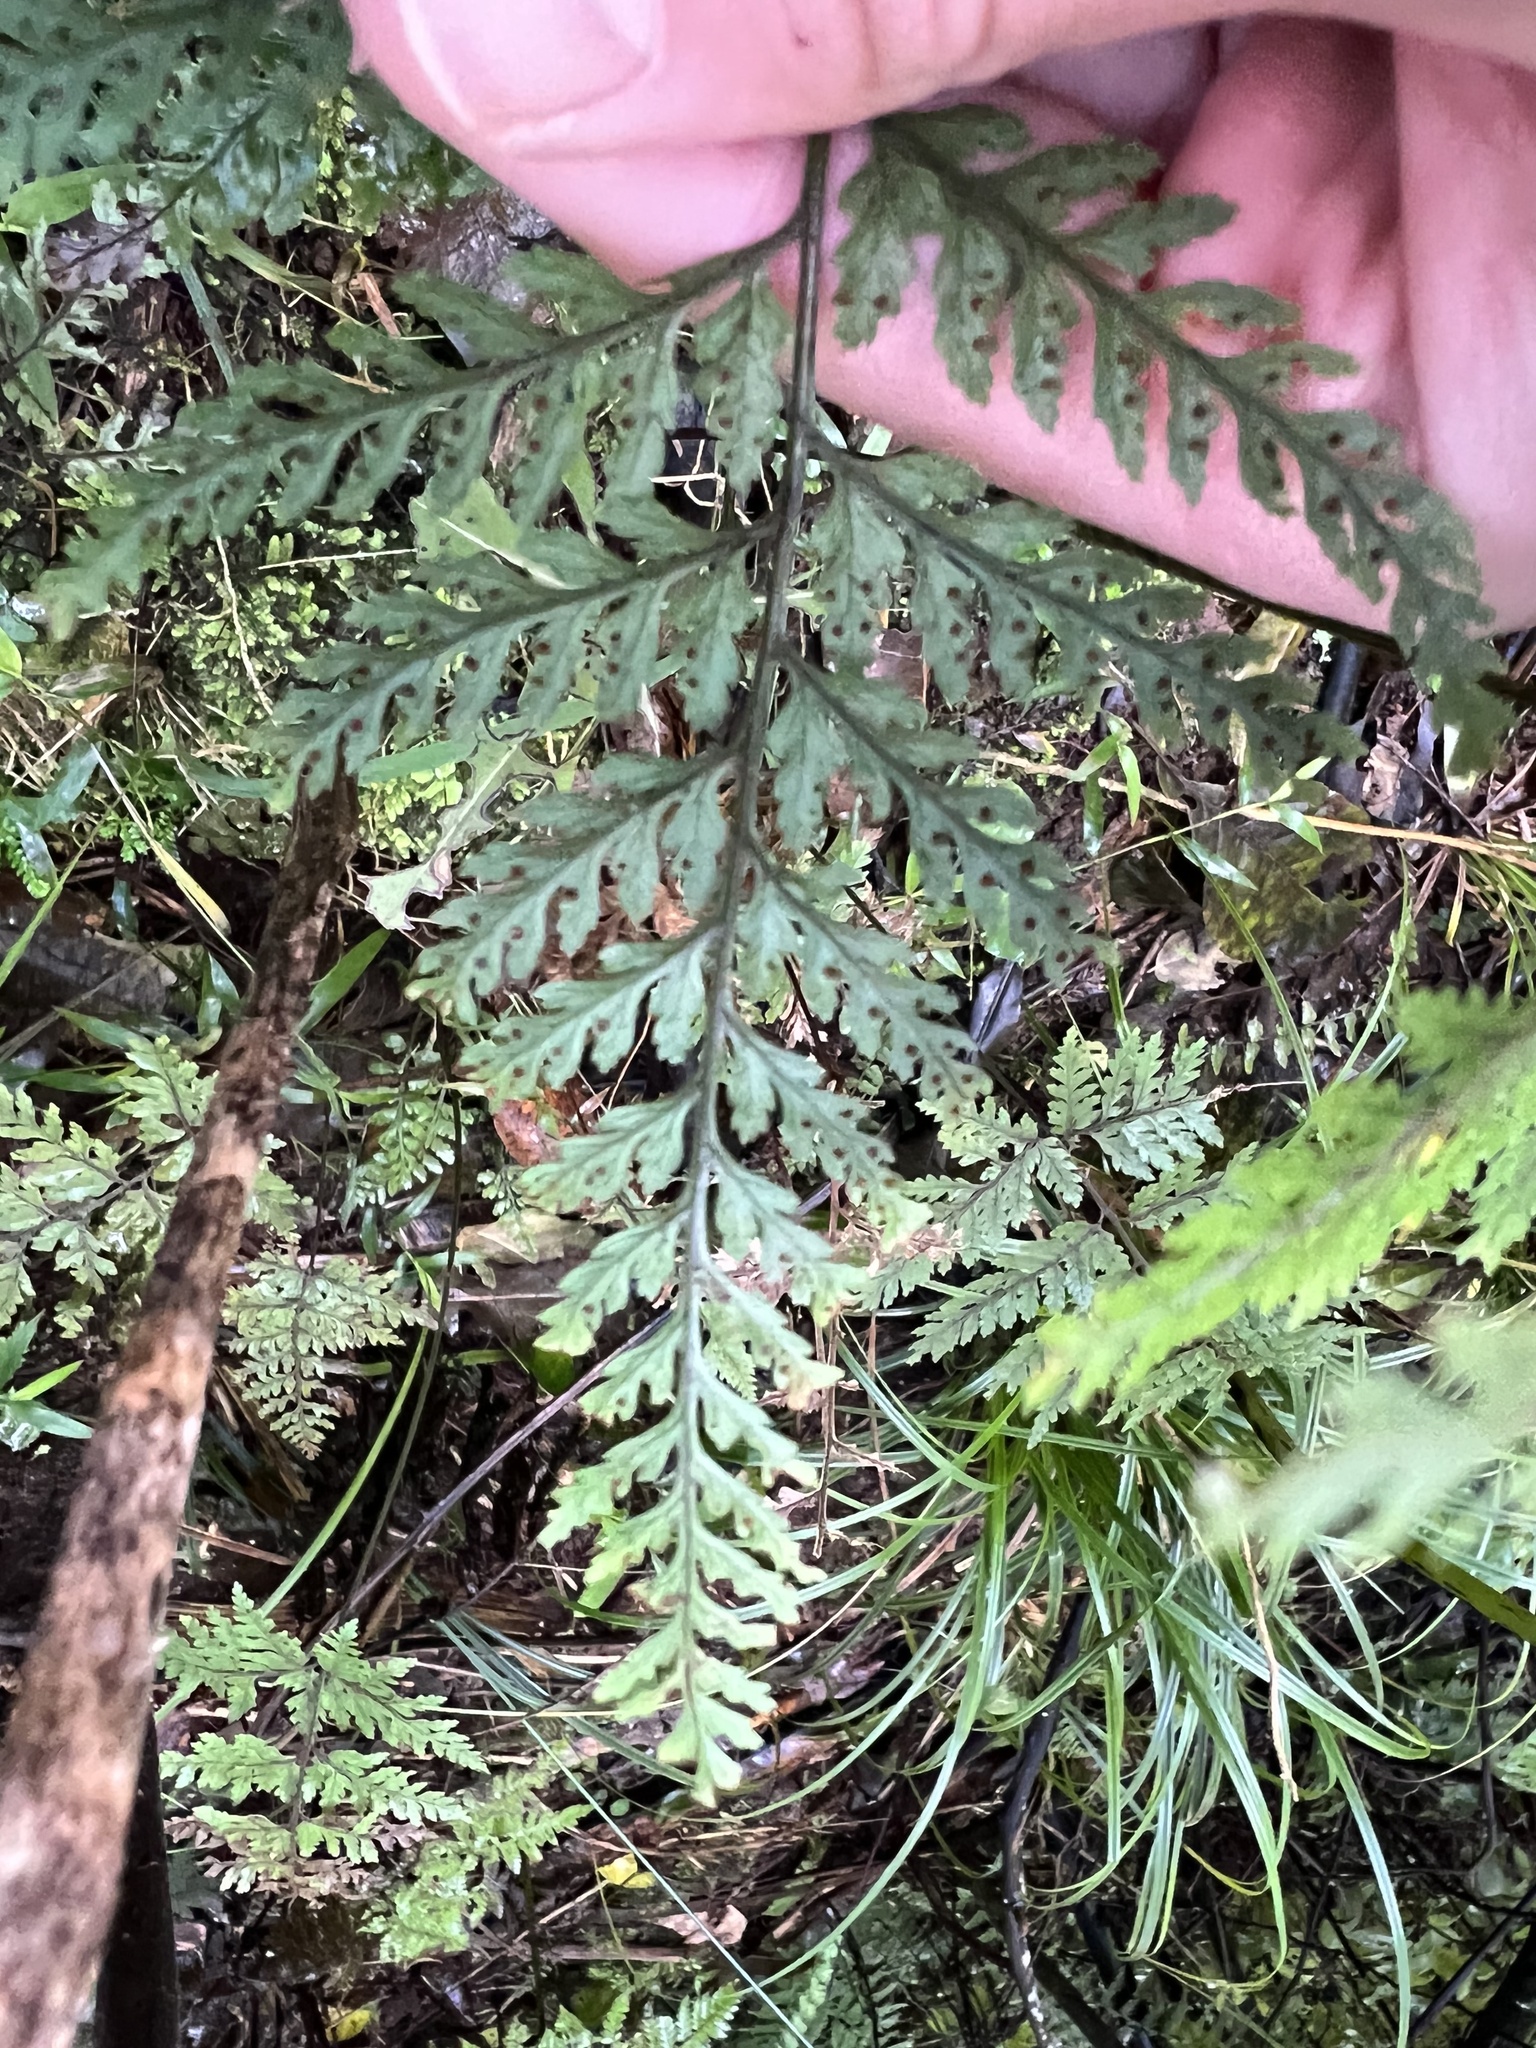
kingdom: Plantae
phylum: Tracheophyta
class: Polypodiopsida
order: Polypodiales
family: Dryopteridaceae
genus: Parapolystichum
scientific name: Parapolystichum glabellum
